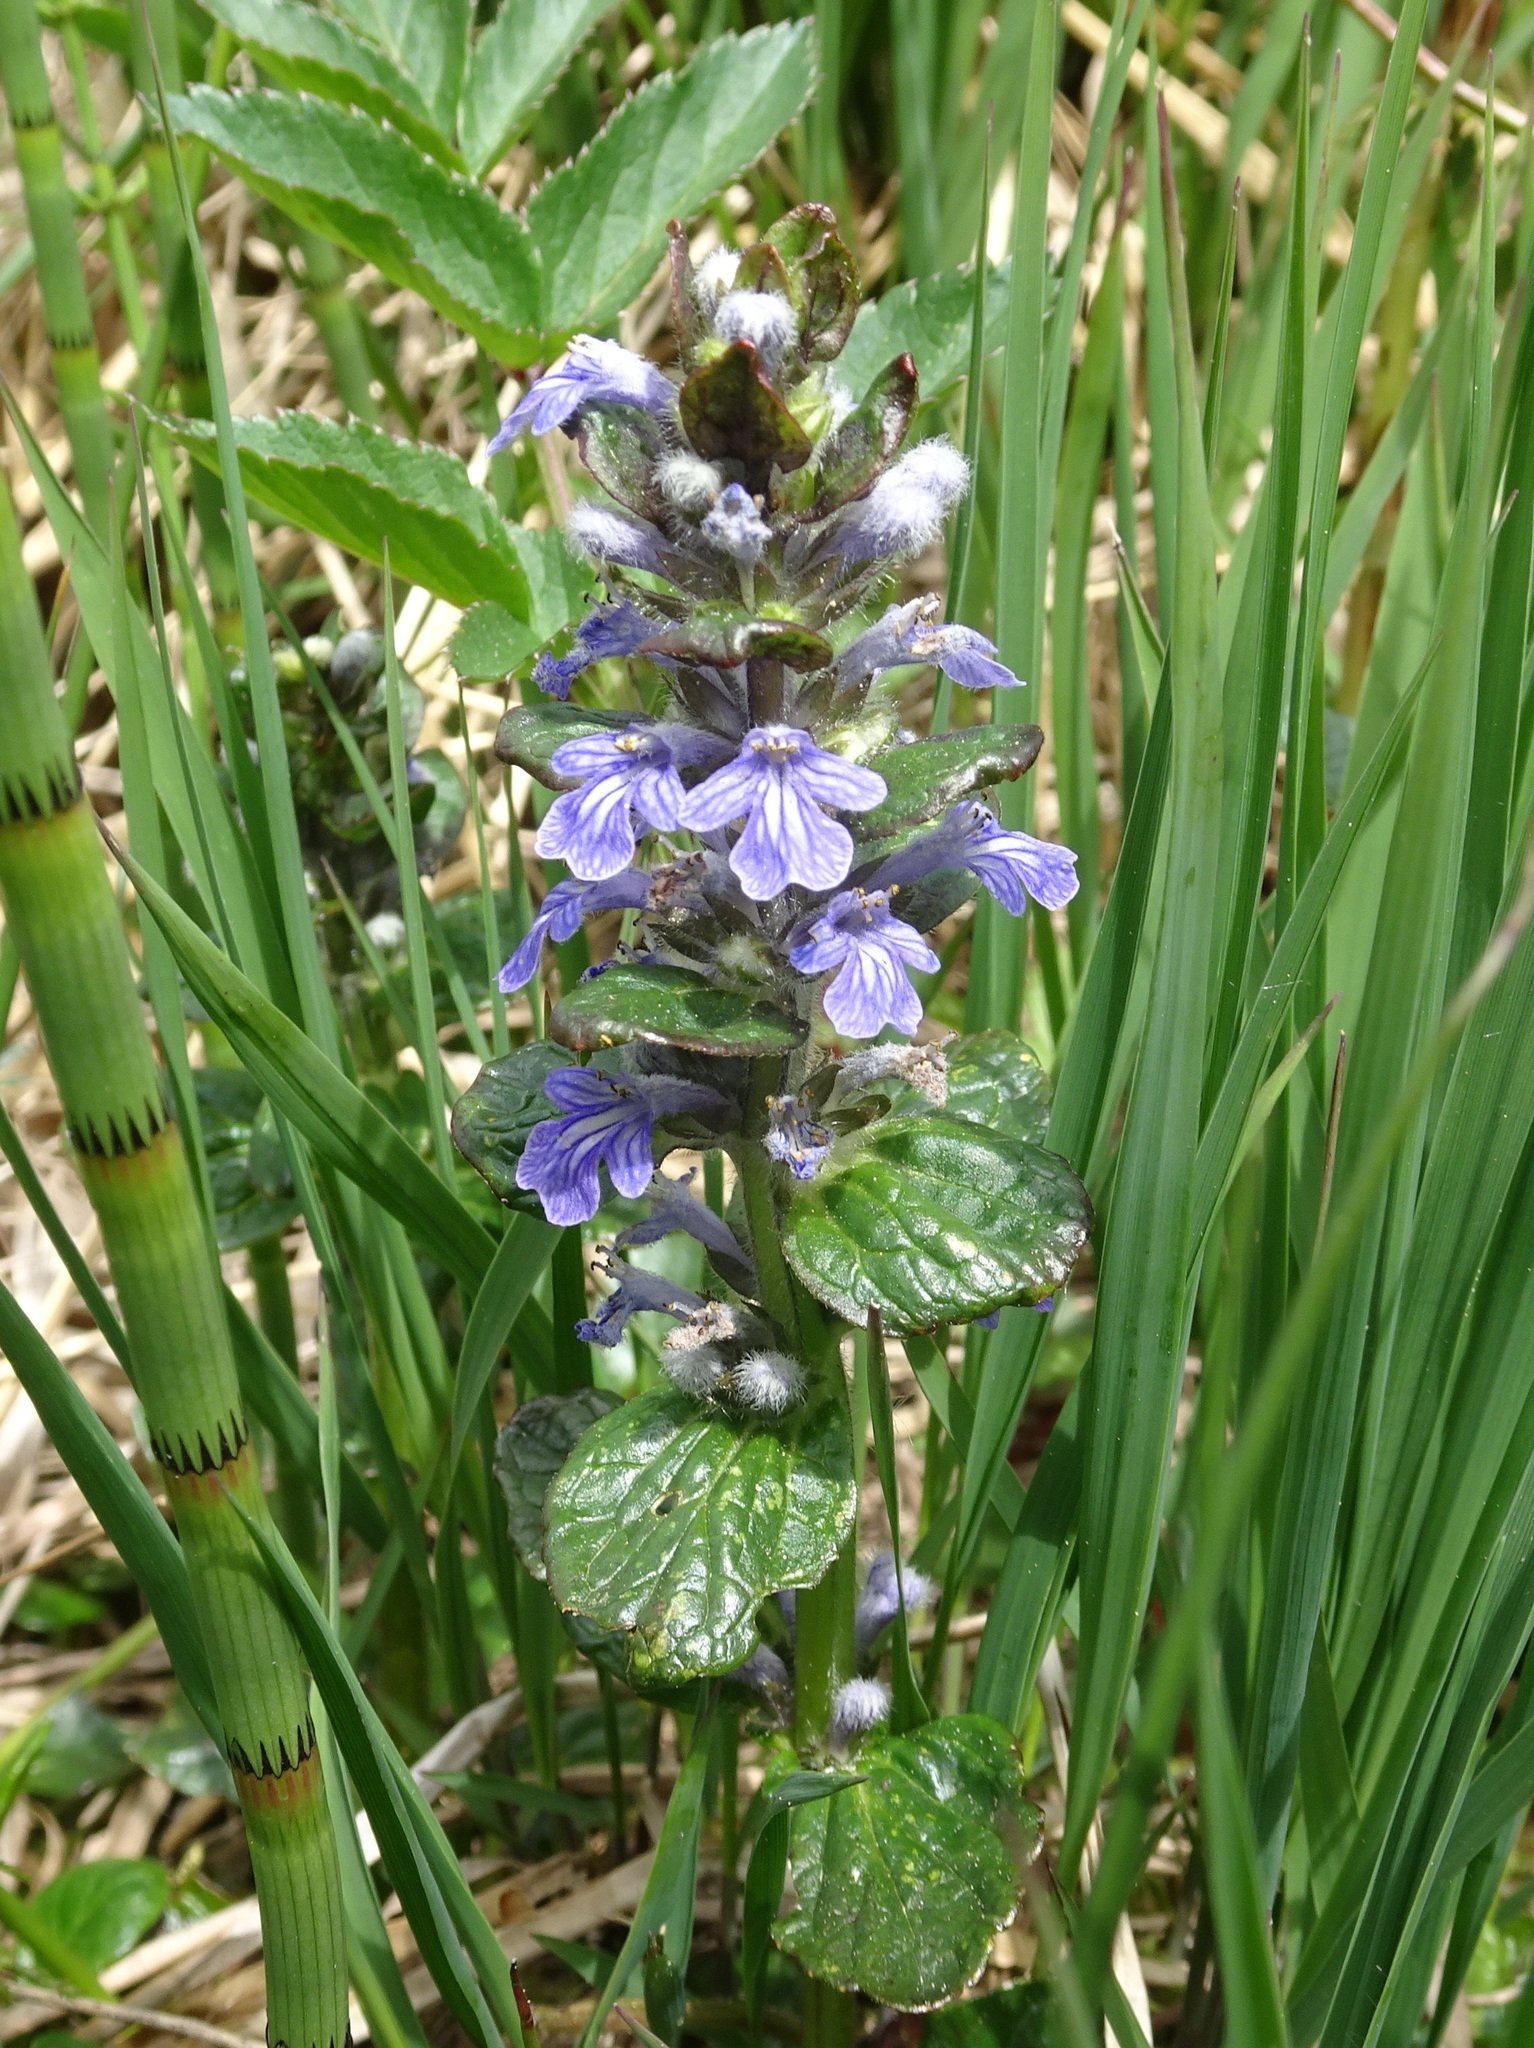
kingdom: Plantae
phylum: Tracheophyta
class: Magnoliopsida
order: Lamiales
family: Lamiaceae
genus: Ajuga
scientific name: Ajuga reptans
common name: Bugle
